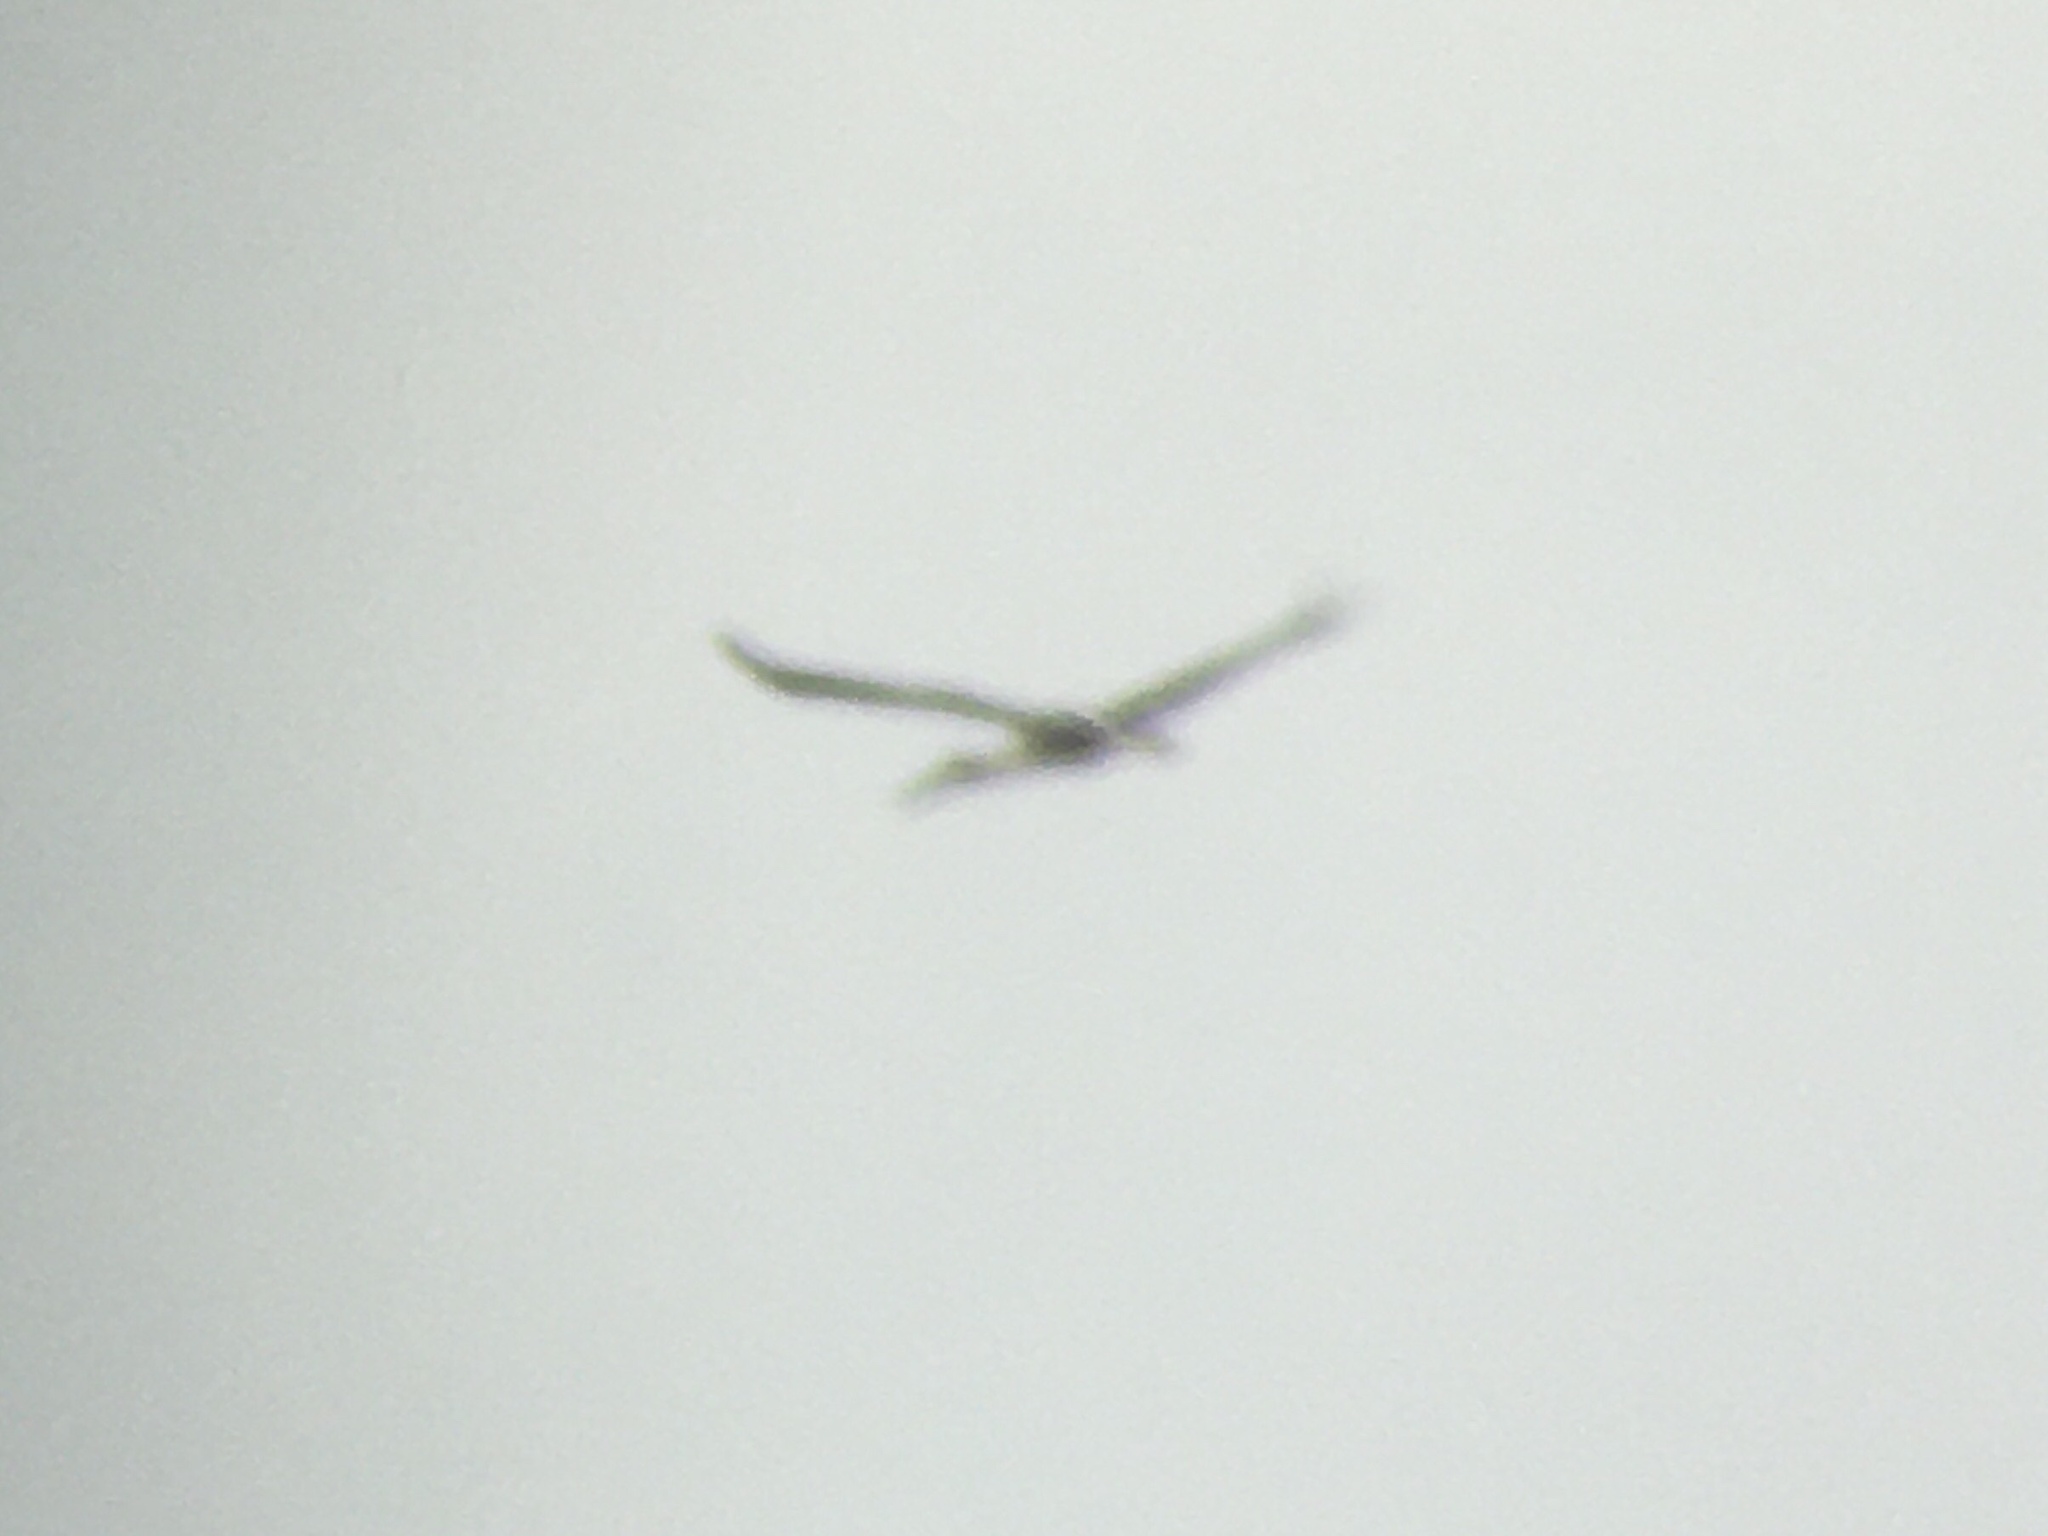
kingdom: Animalia
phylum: Chordata
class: Aves
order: Ciconiiformes
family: Ciconiidae
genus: Ciconia
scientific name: Ciconia maguari
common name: Maguari stork
